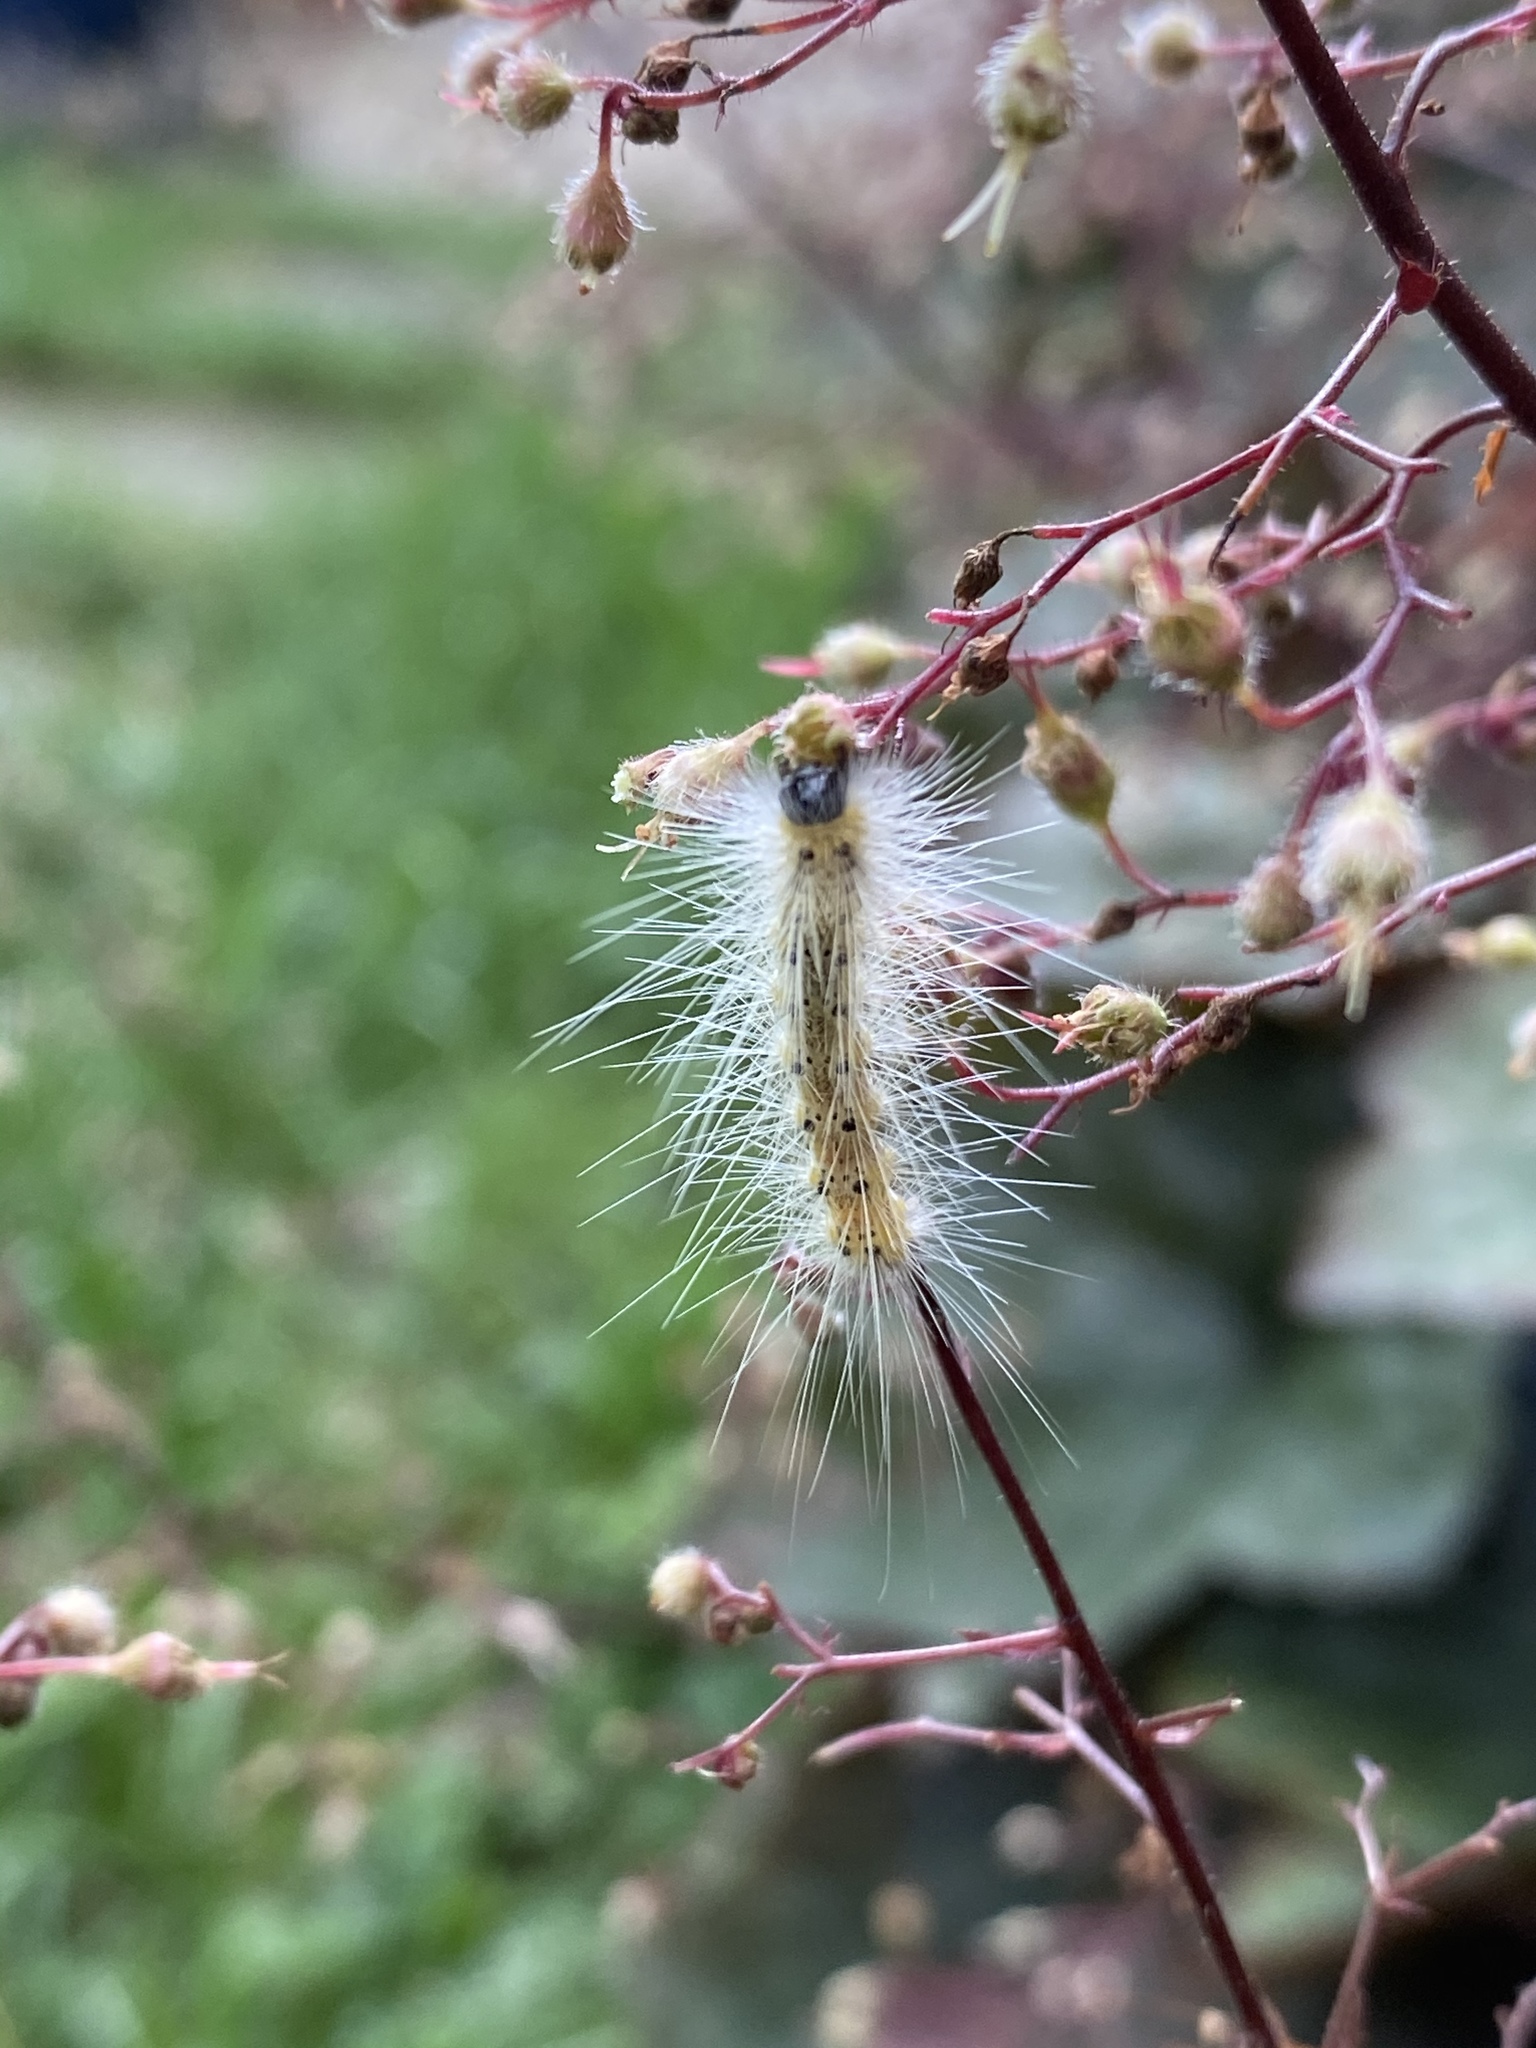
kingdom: Animalia
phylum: Arthropoda
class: Insecta
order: Lepidoptera
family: Erebidae
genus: Hyphantria
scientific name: Hyphantria cunea
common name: American white moth
